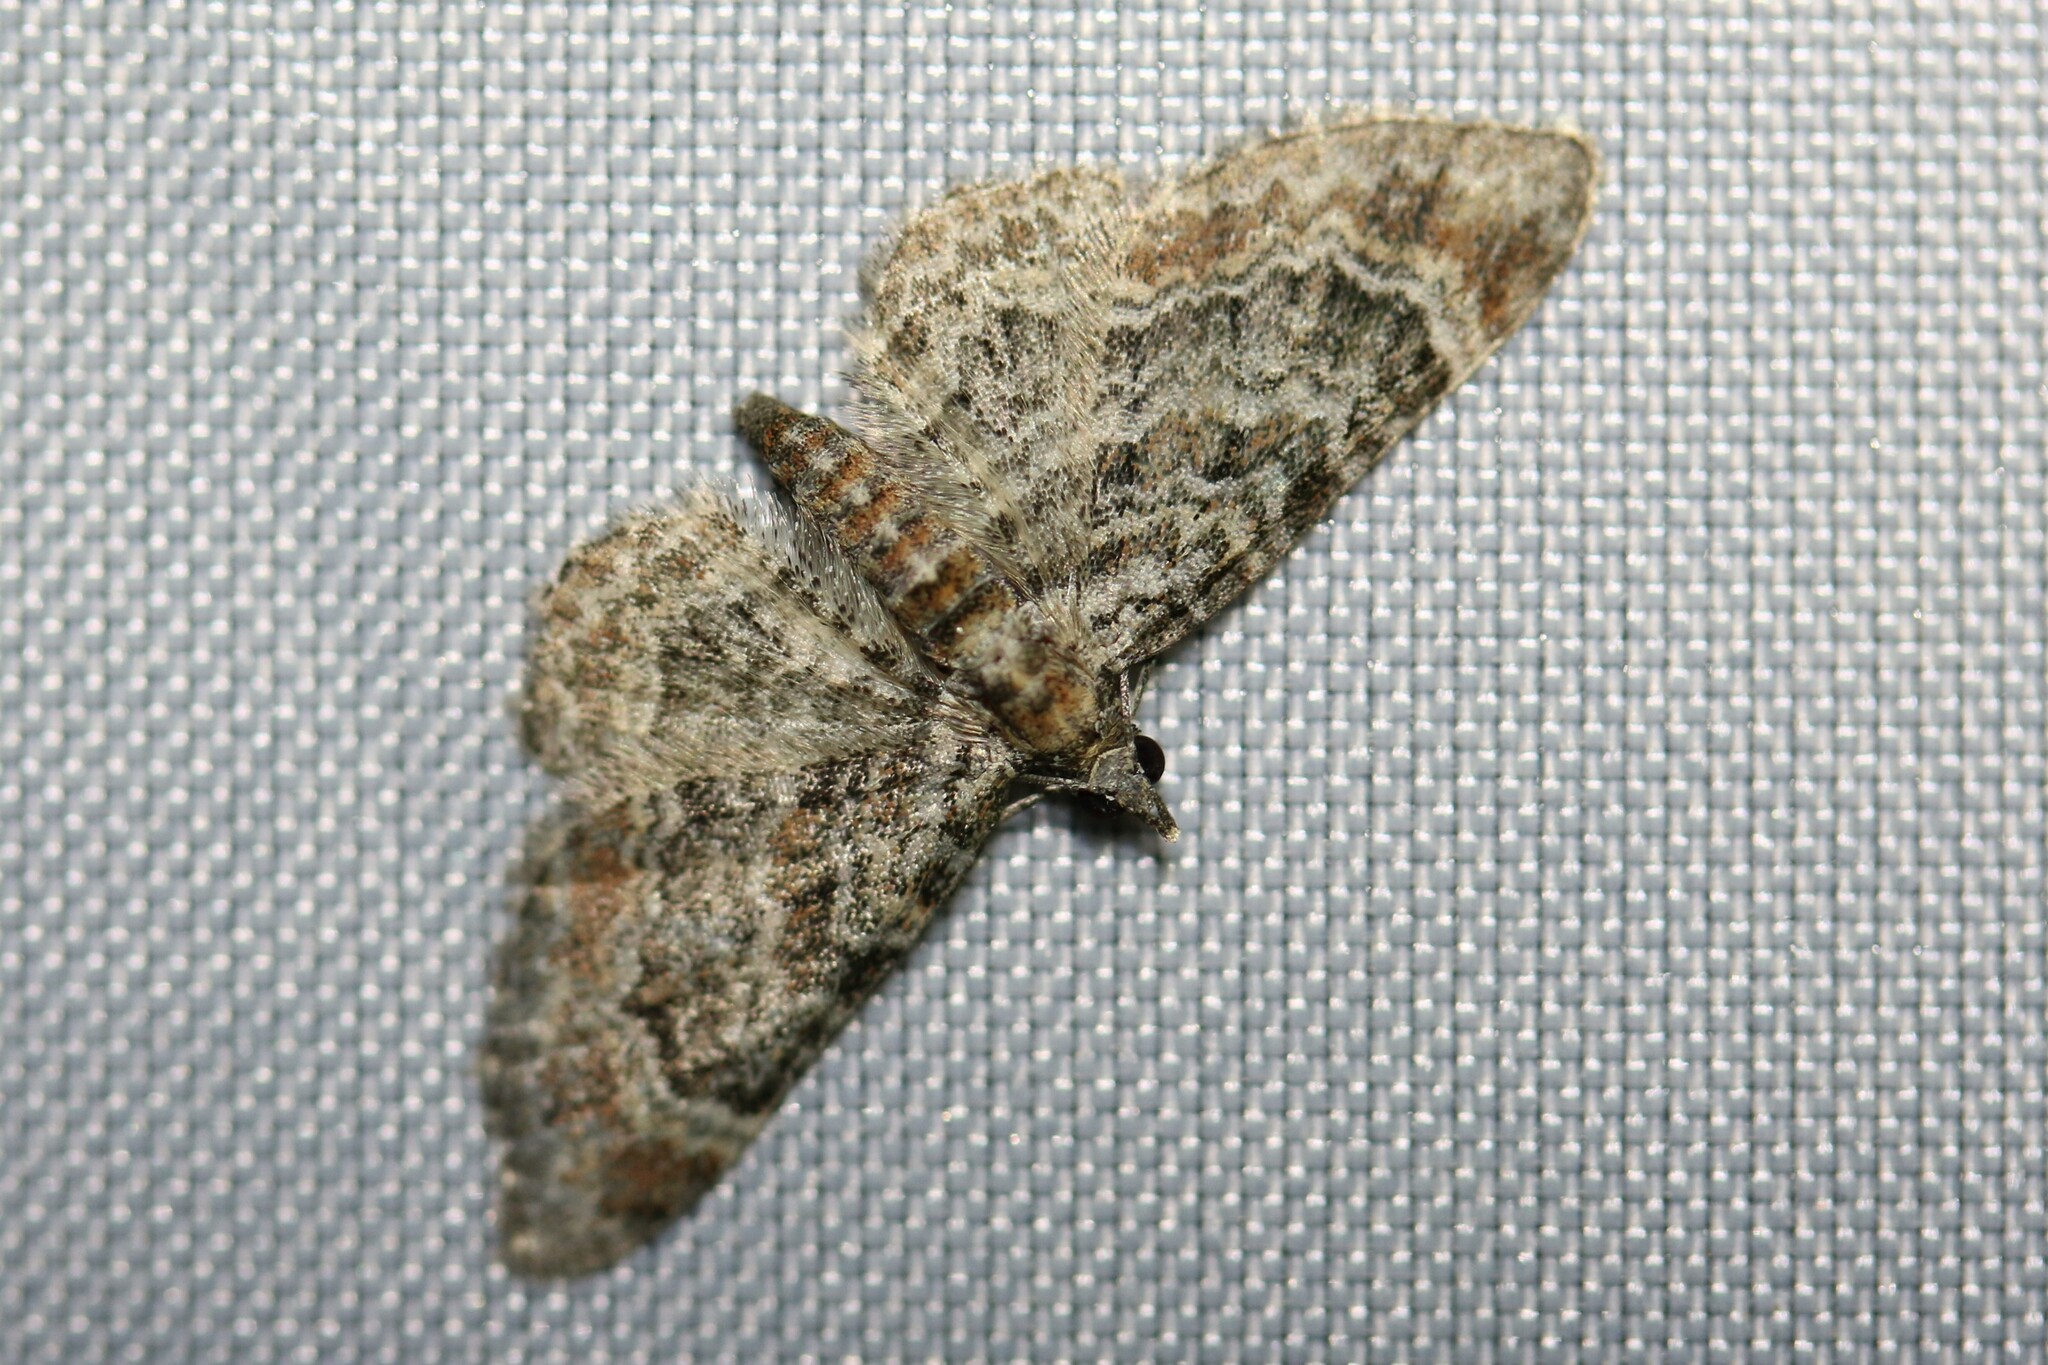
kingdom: Animalia
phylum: Arthropoda
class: Insecta
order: Lepidoptera
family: Geometridae
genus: Gymnoscelis
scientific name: Gymnoscelis rufifasciata
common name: Double-striped pug
